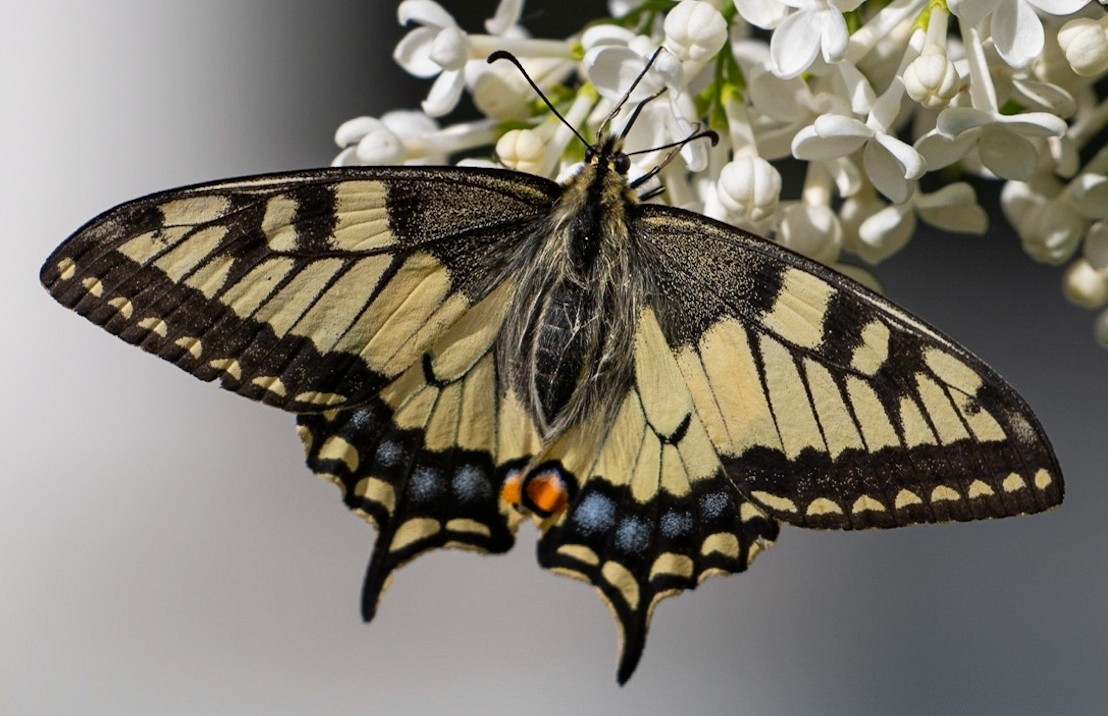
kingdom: Animalia
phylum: Arthropoda
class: Insecta
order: Lepidoptera
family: Papilionidae
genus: Papilio
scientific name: Papilio machaon
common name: Swallowtail
